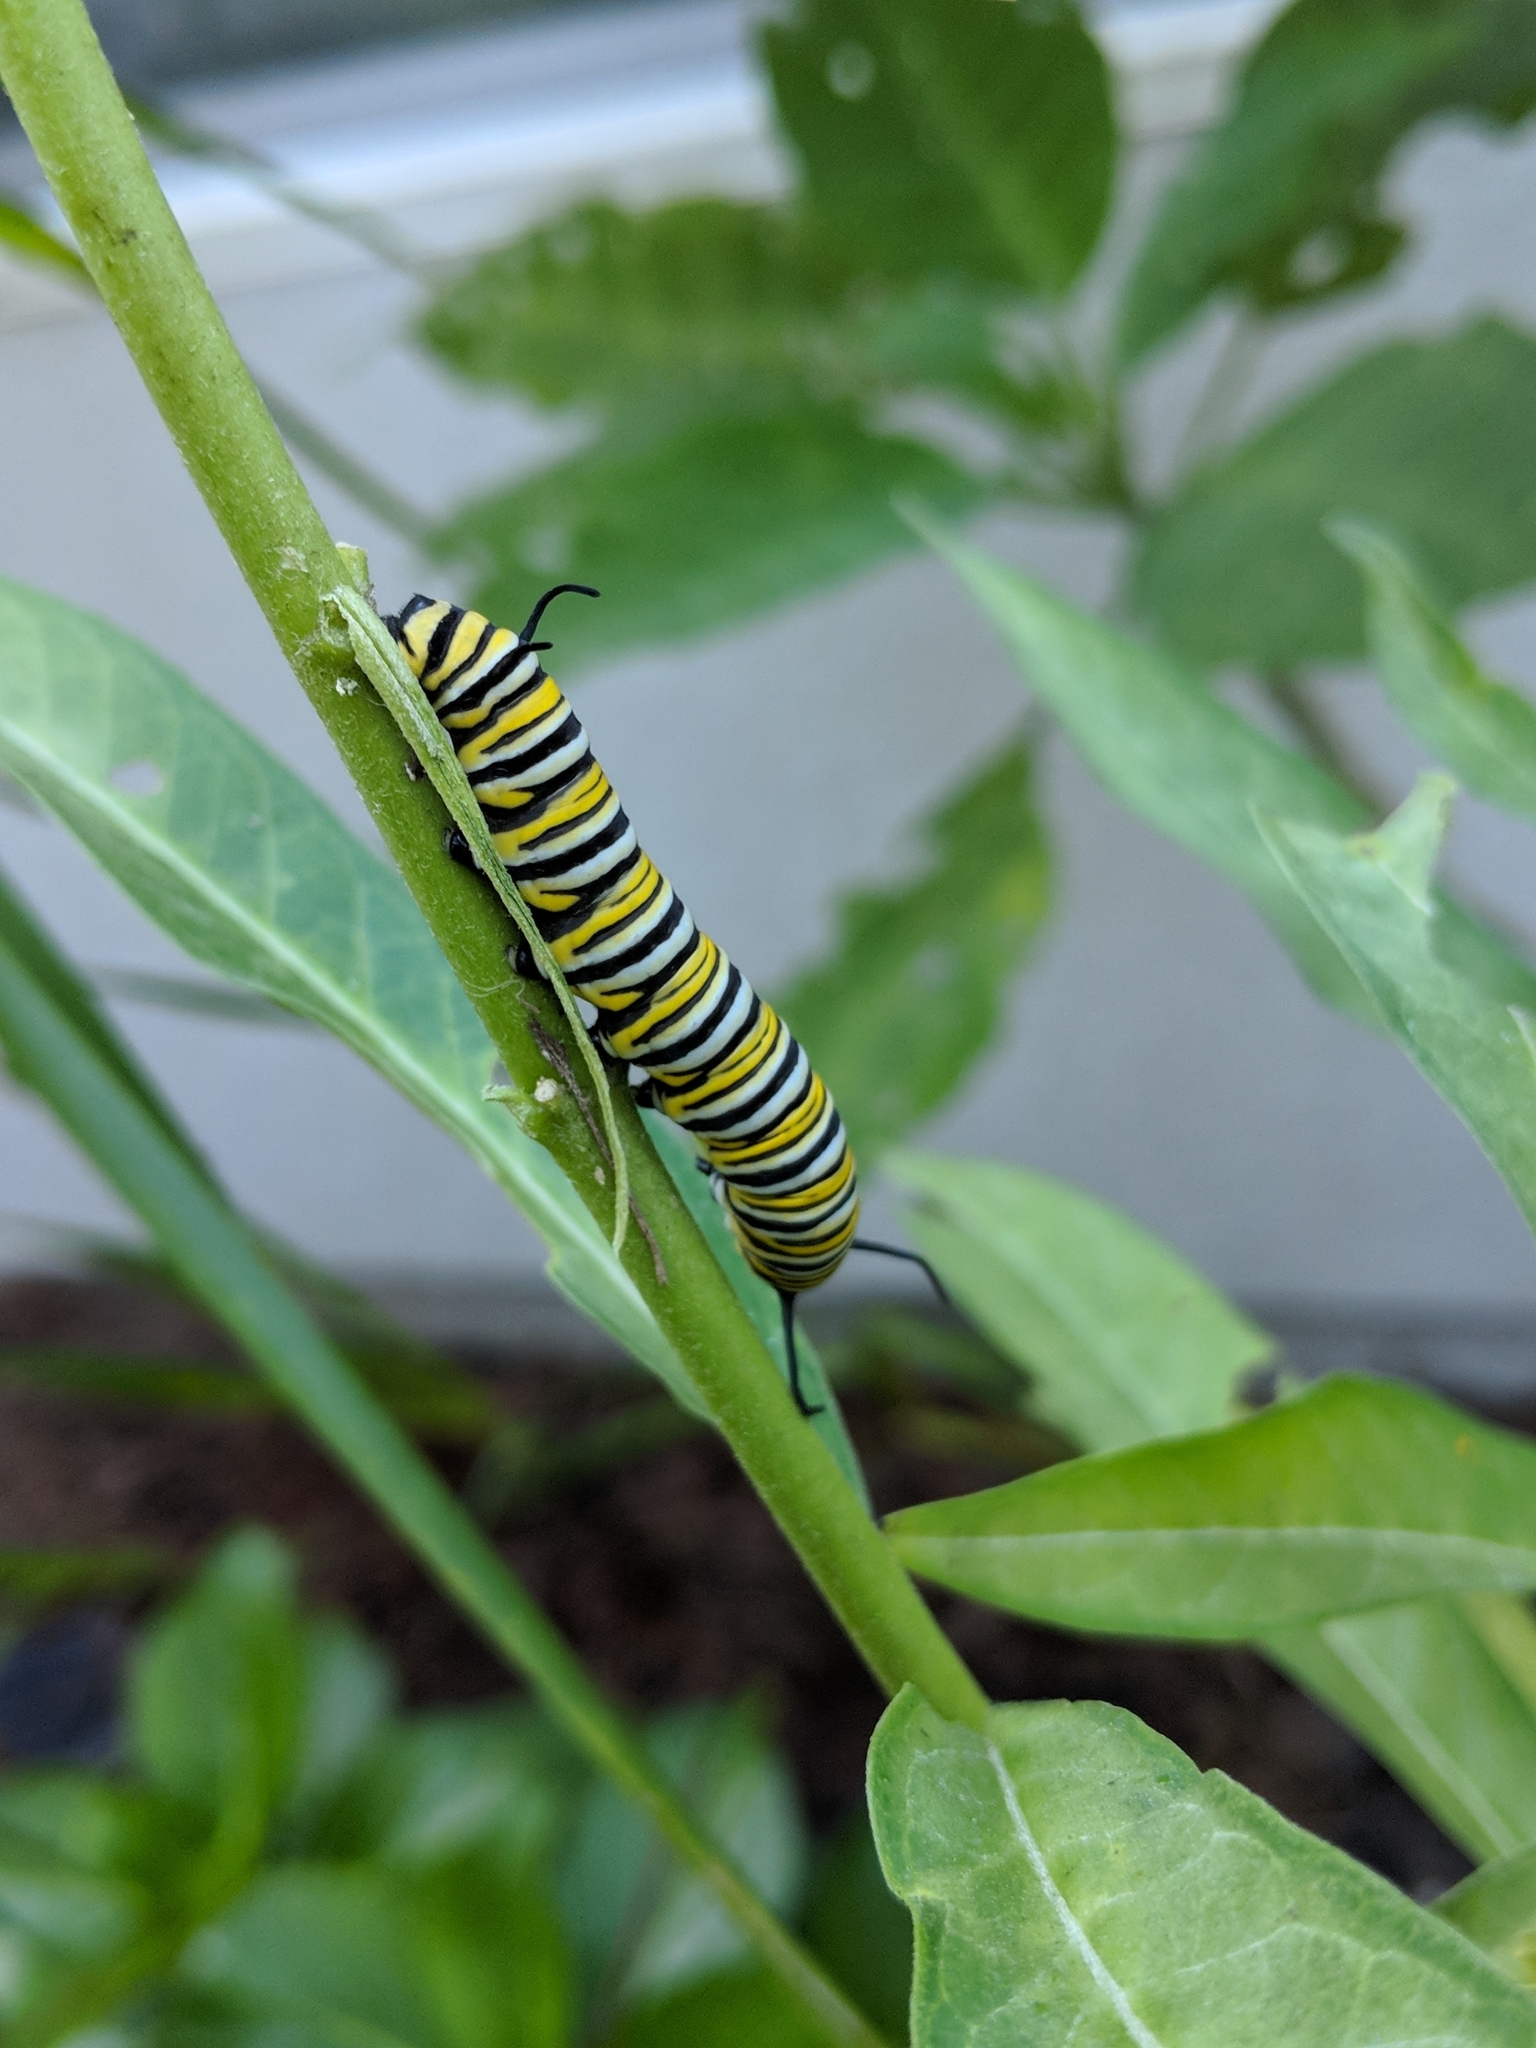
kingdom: Animalia
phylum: Arthropoda
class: Insecta
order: Lepidoptera
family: Nymphalidae
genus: Danaus
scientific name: Danaus plexippus
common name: Monarch
